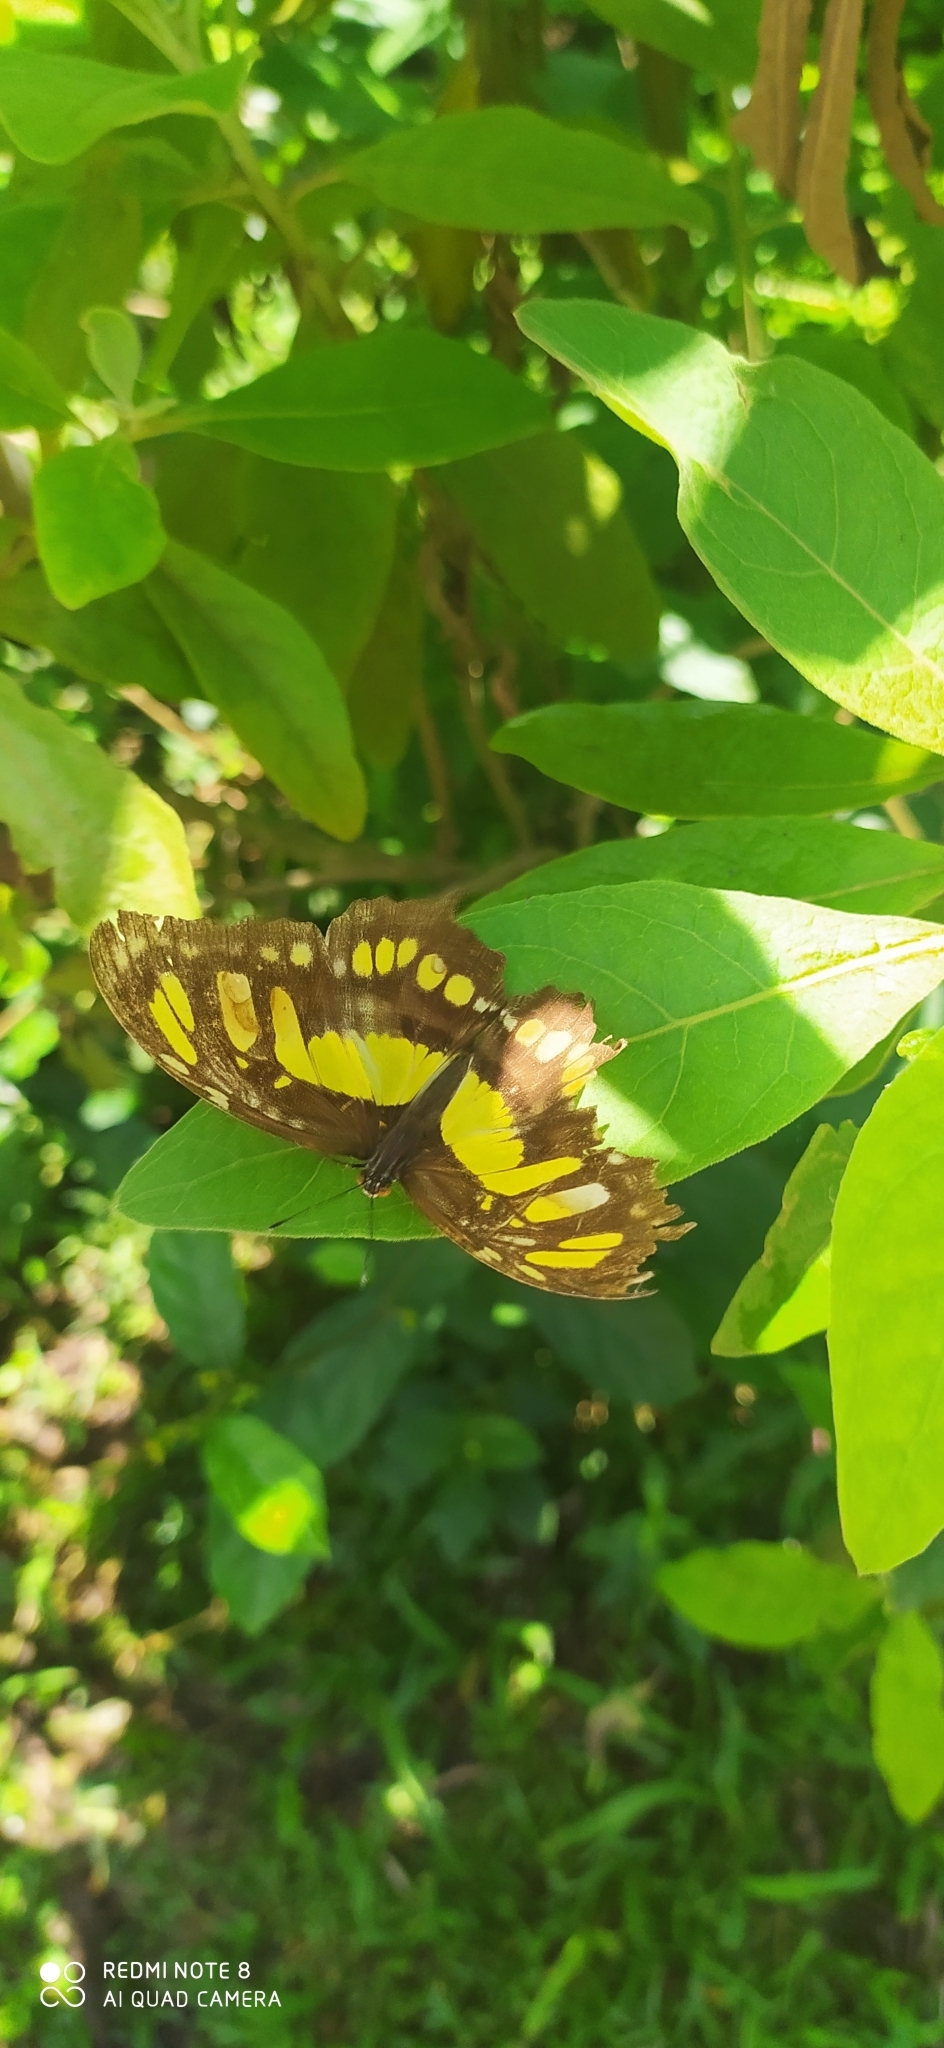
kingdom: Animalia
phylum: Arthropoda
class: Insecta
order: Lepidoptera
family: Nymphalidae
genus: Siproeta
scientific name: Siproeta stelenes
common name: Malachite
